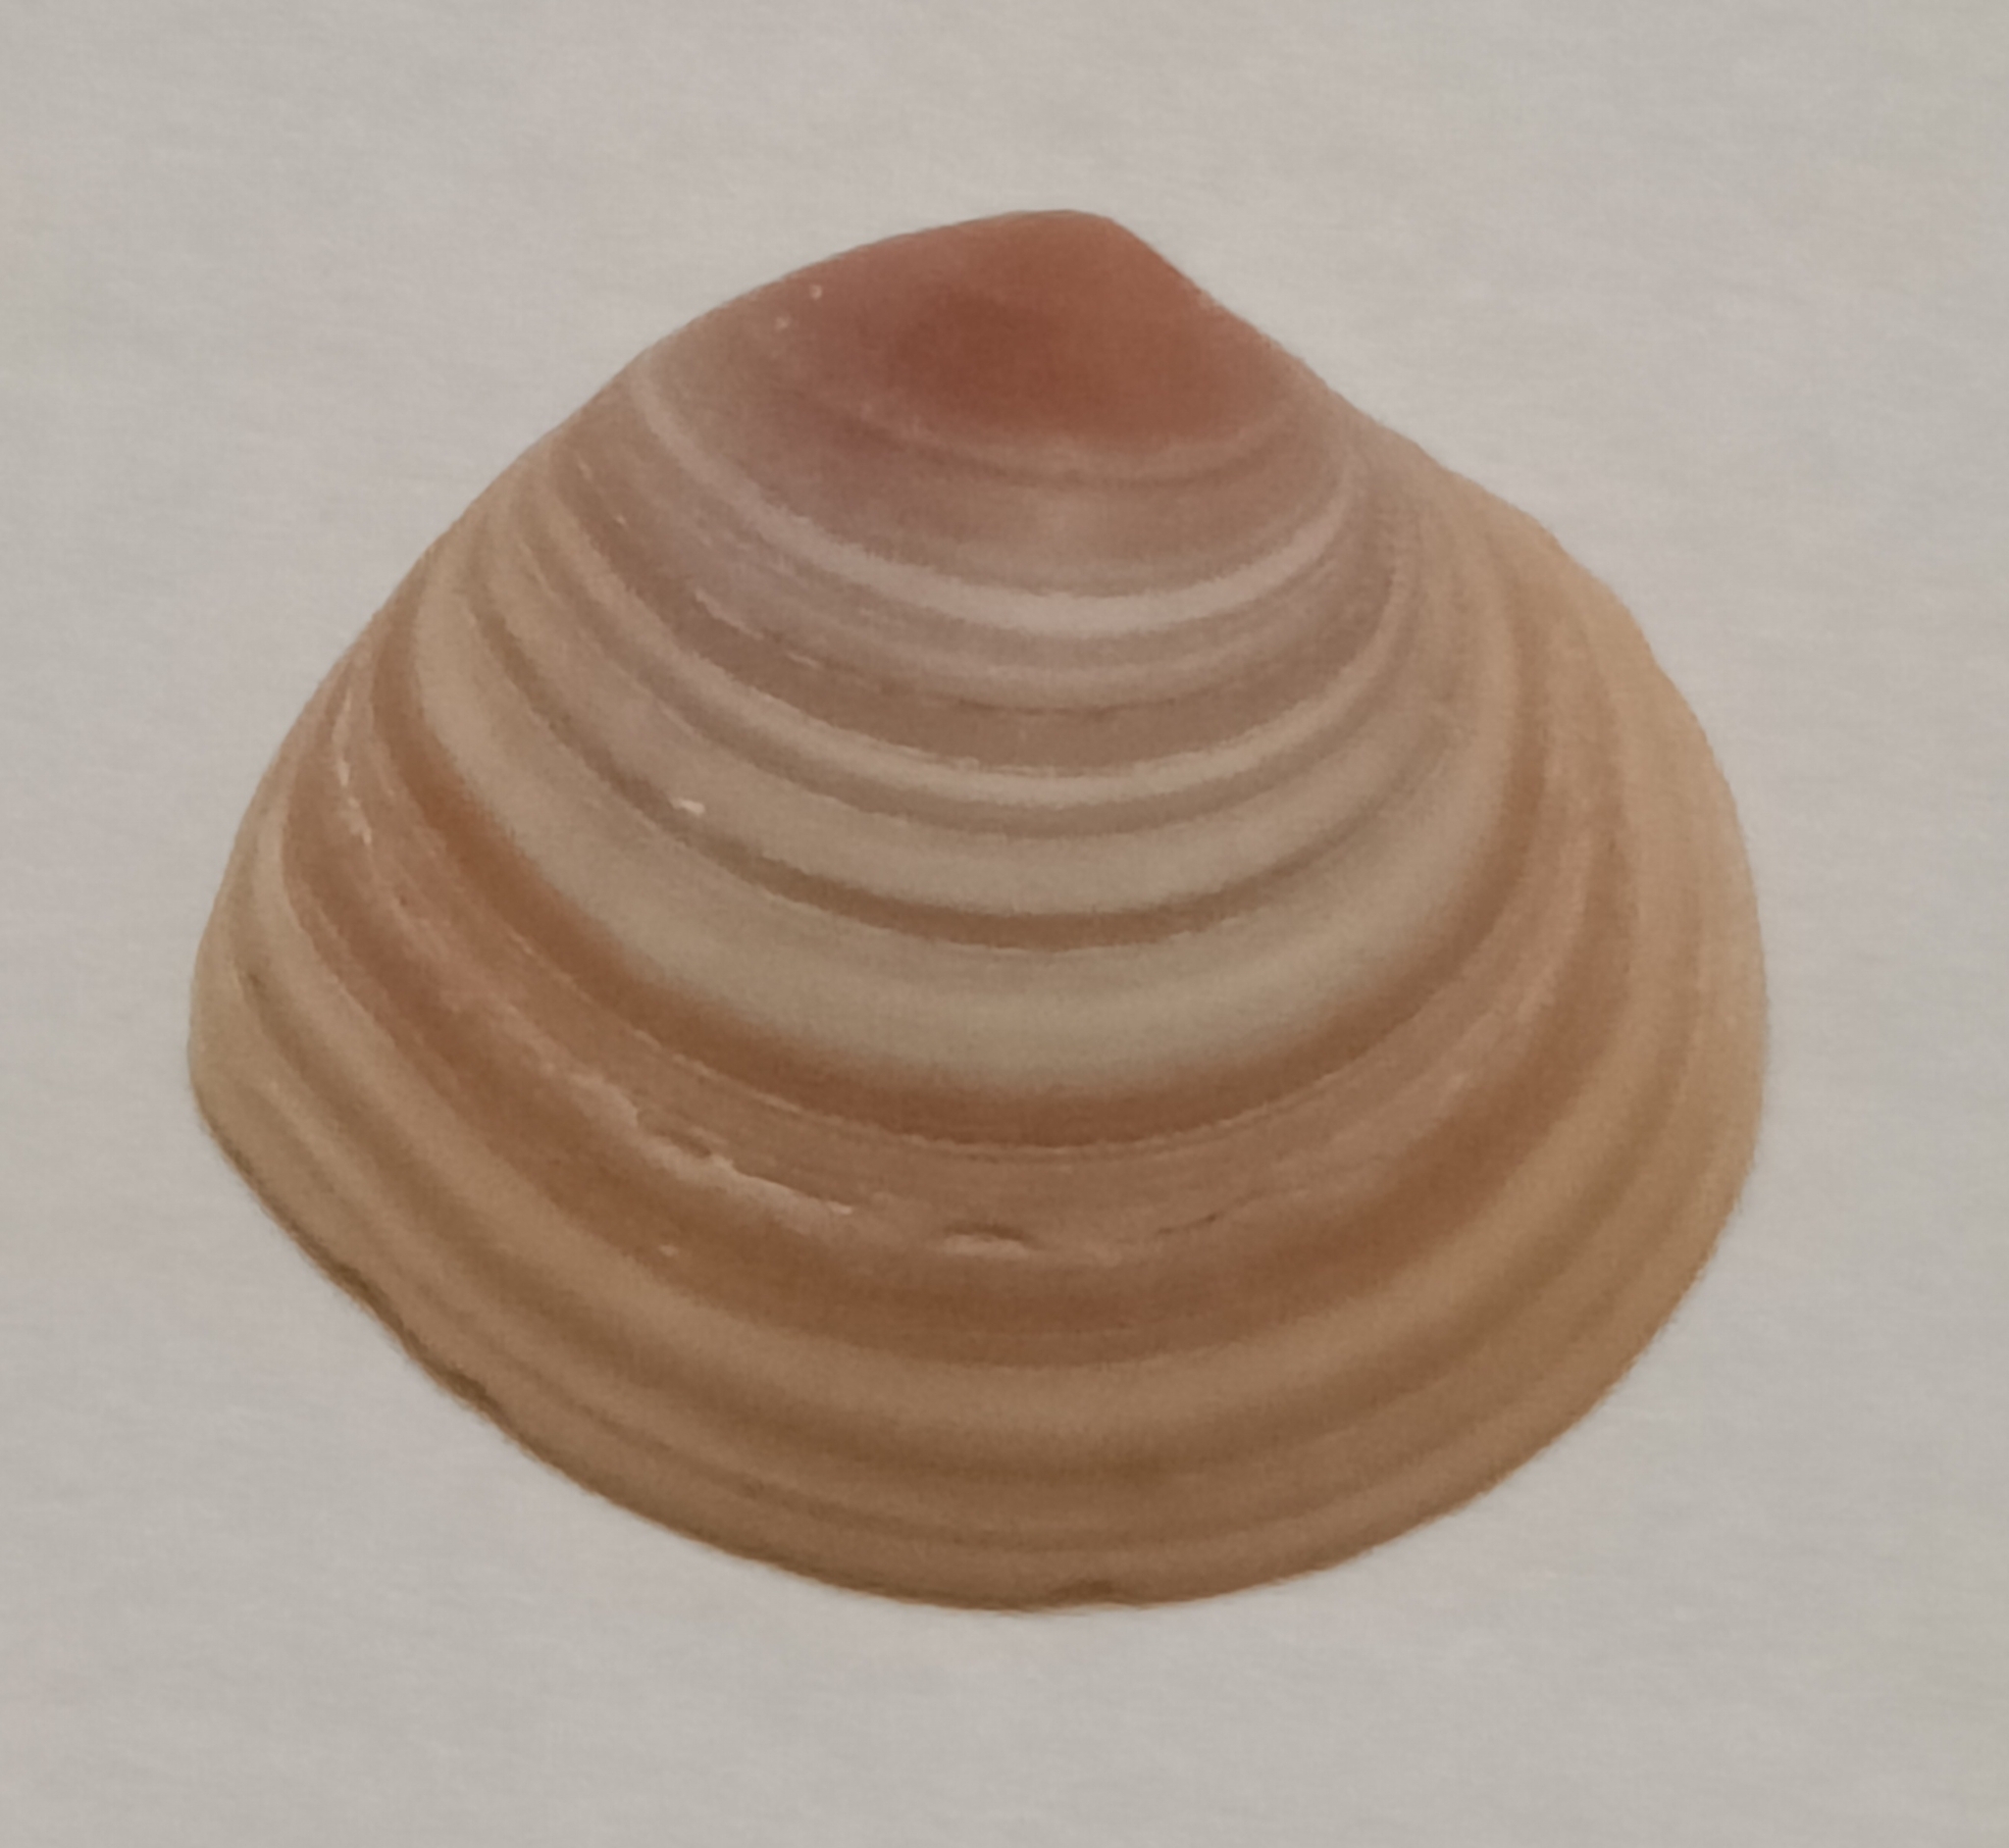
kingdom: Animalia
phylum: Mollusca
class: Bivalvia
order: Cardiida
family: Tellinidae
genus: Macoma
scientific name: Macoma balthica
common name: Baltic tellin
